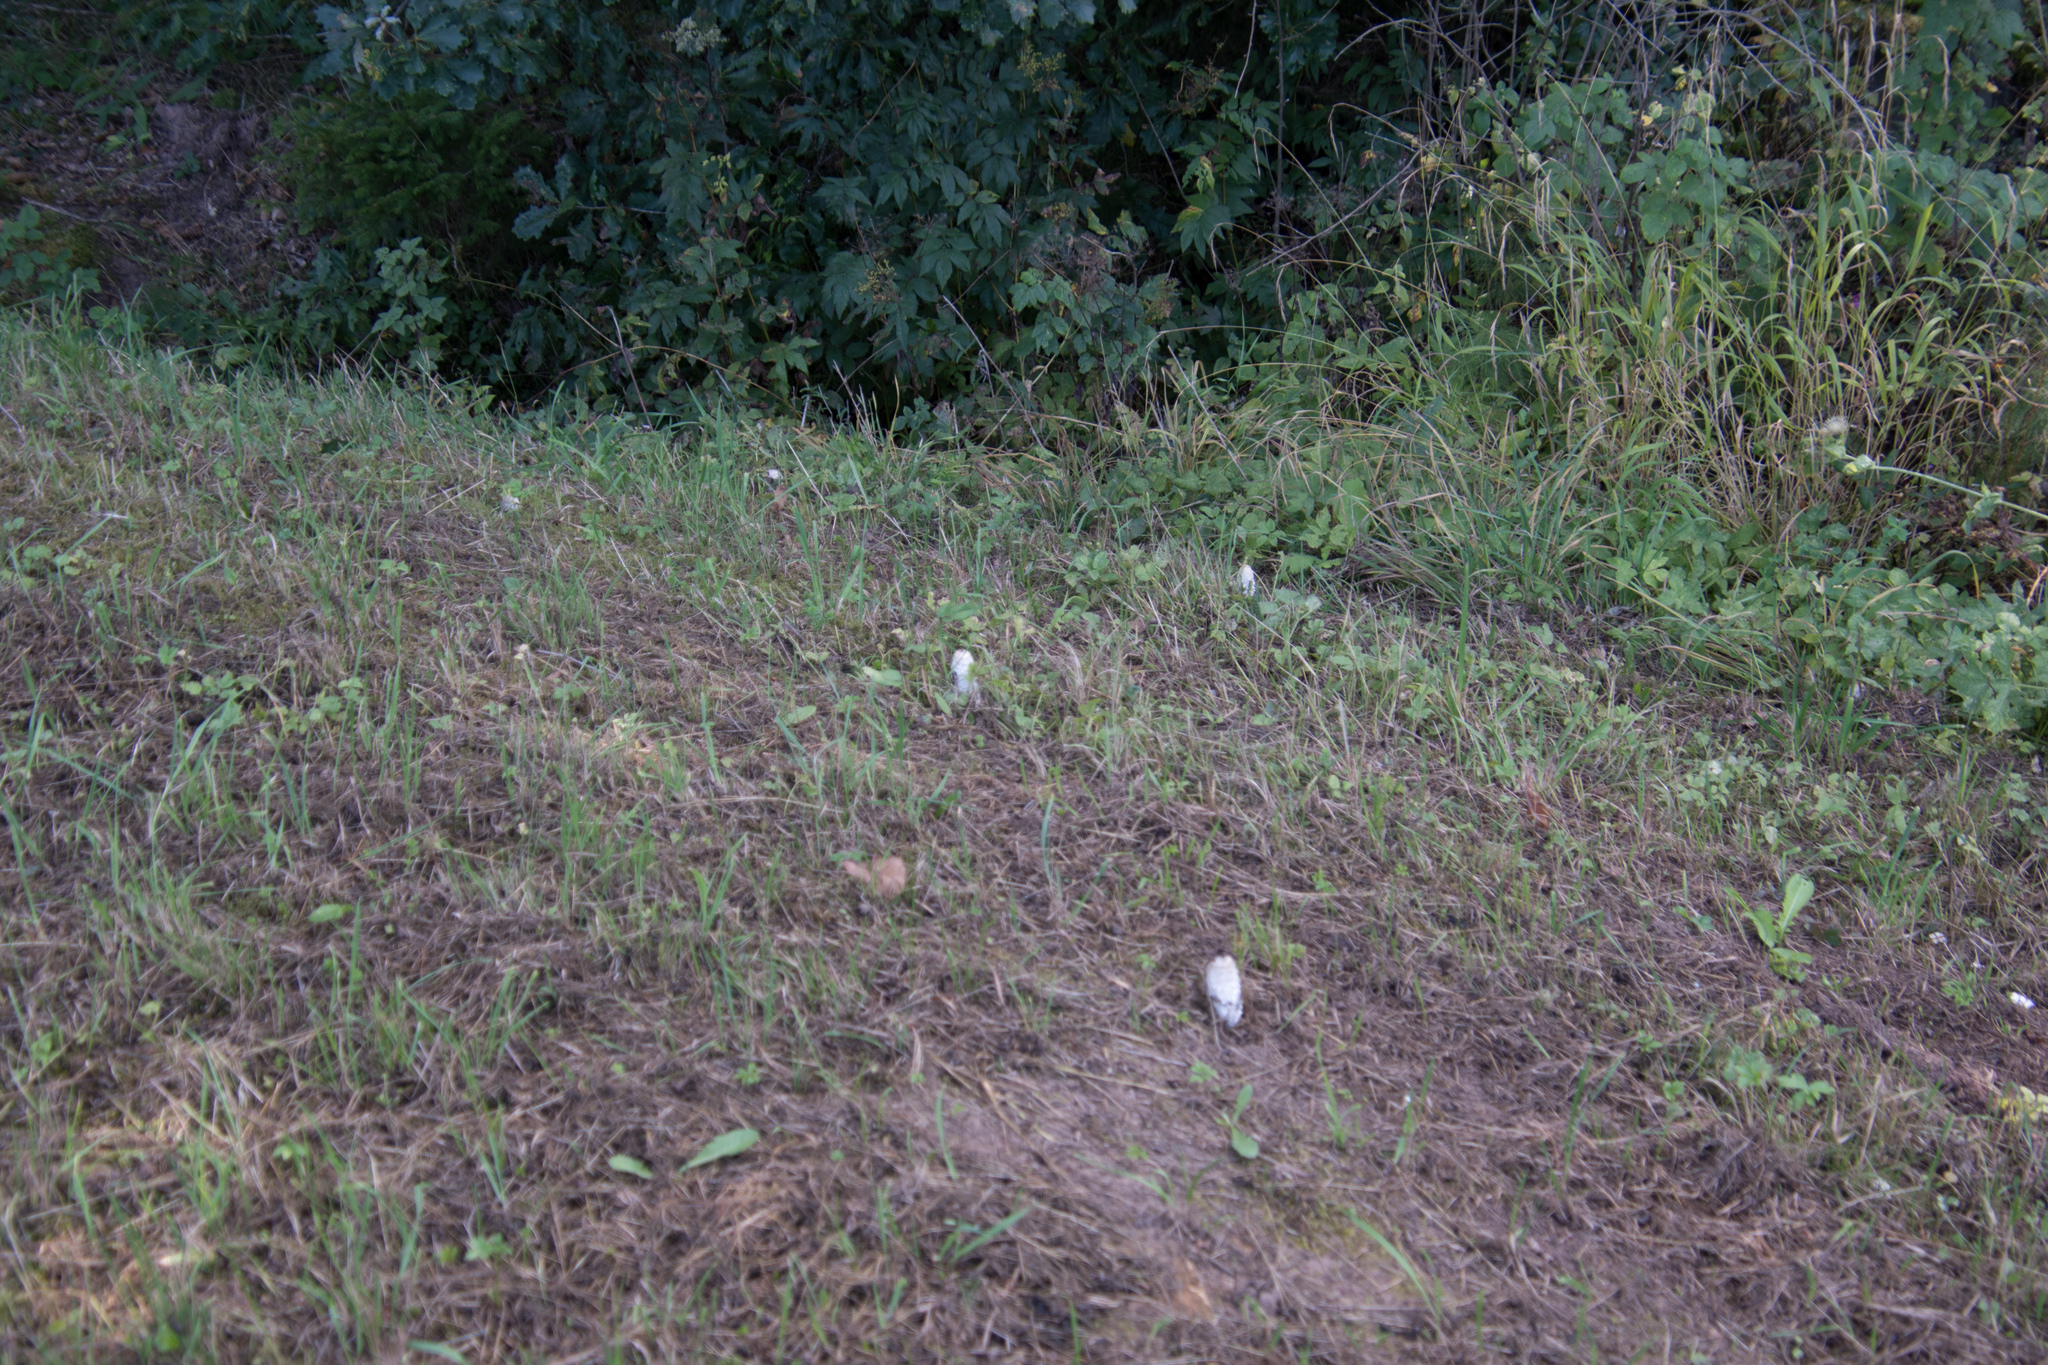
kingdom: Fungi
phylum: Basidiomycota
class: Agaricomycetes
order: Agaricales
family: Agaricaceae
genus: Coprinus
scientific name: Coprinus comatus
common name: Lawyer's wig
